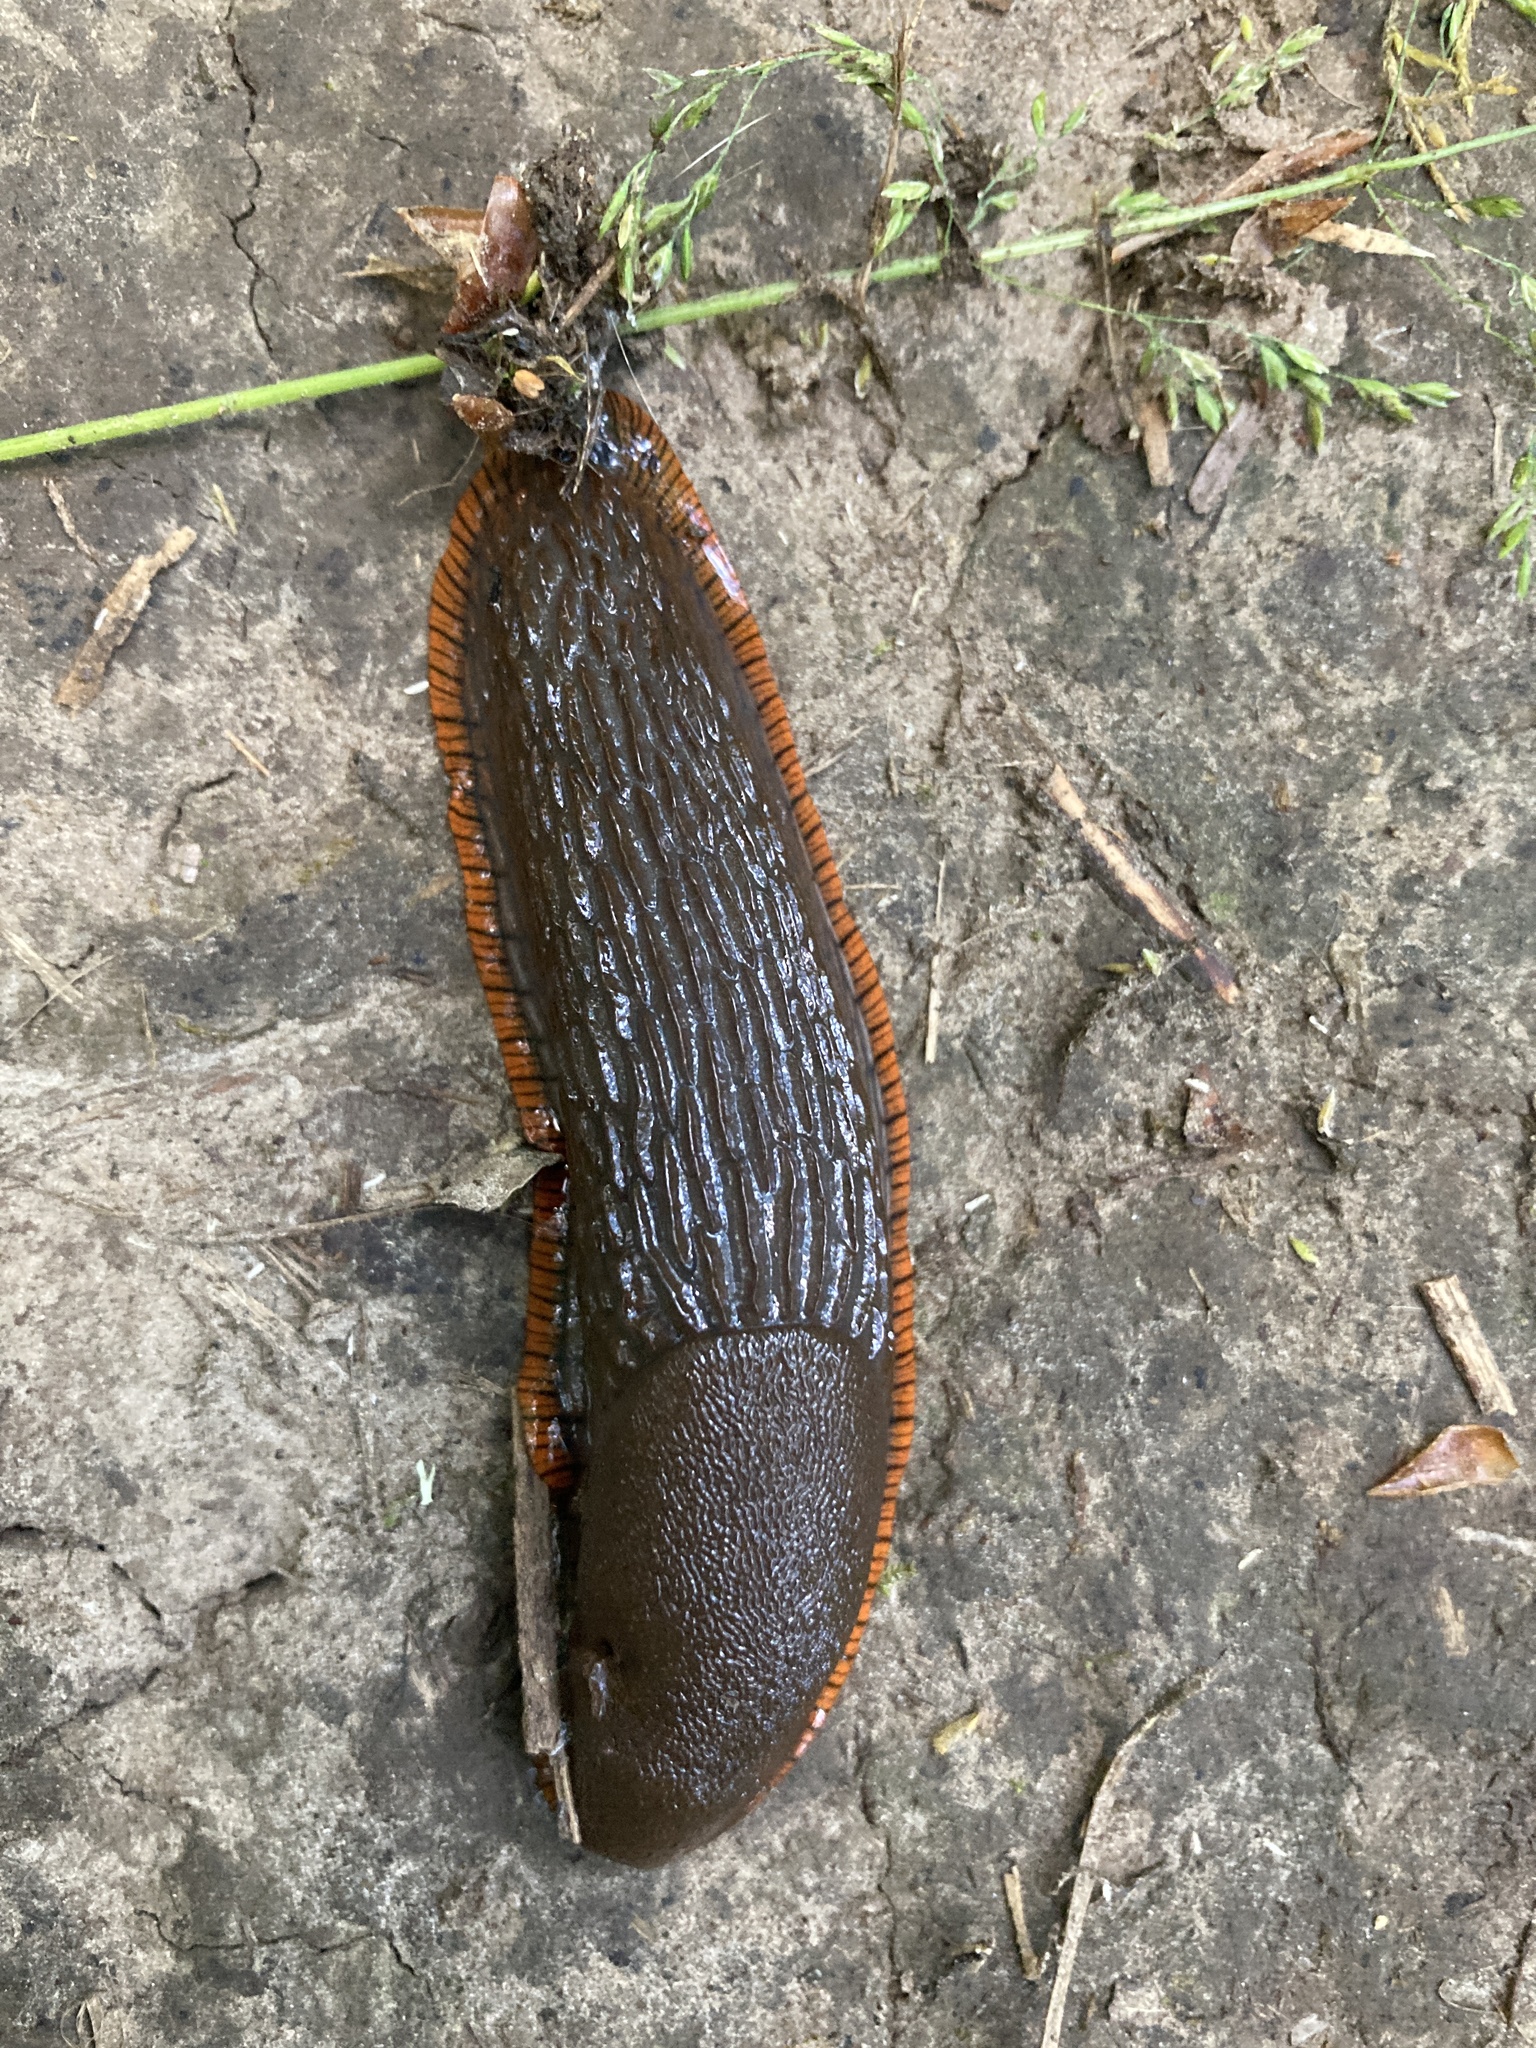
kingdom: Animalia
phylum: Mollusca
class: Gastropoda
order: Stylommatophora
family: Arionidae
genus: Arion
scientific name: Arion rufus
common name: Chocolate arion
